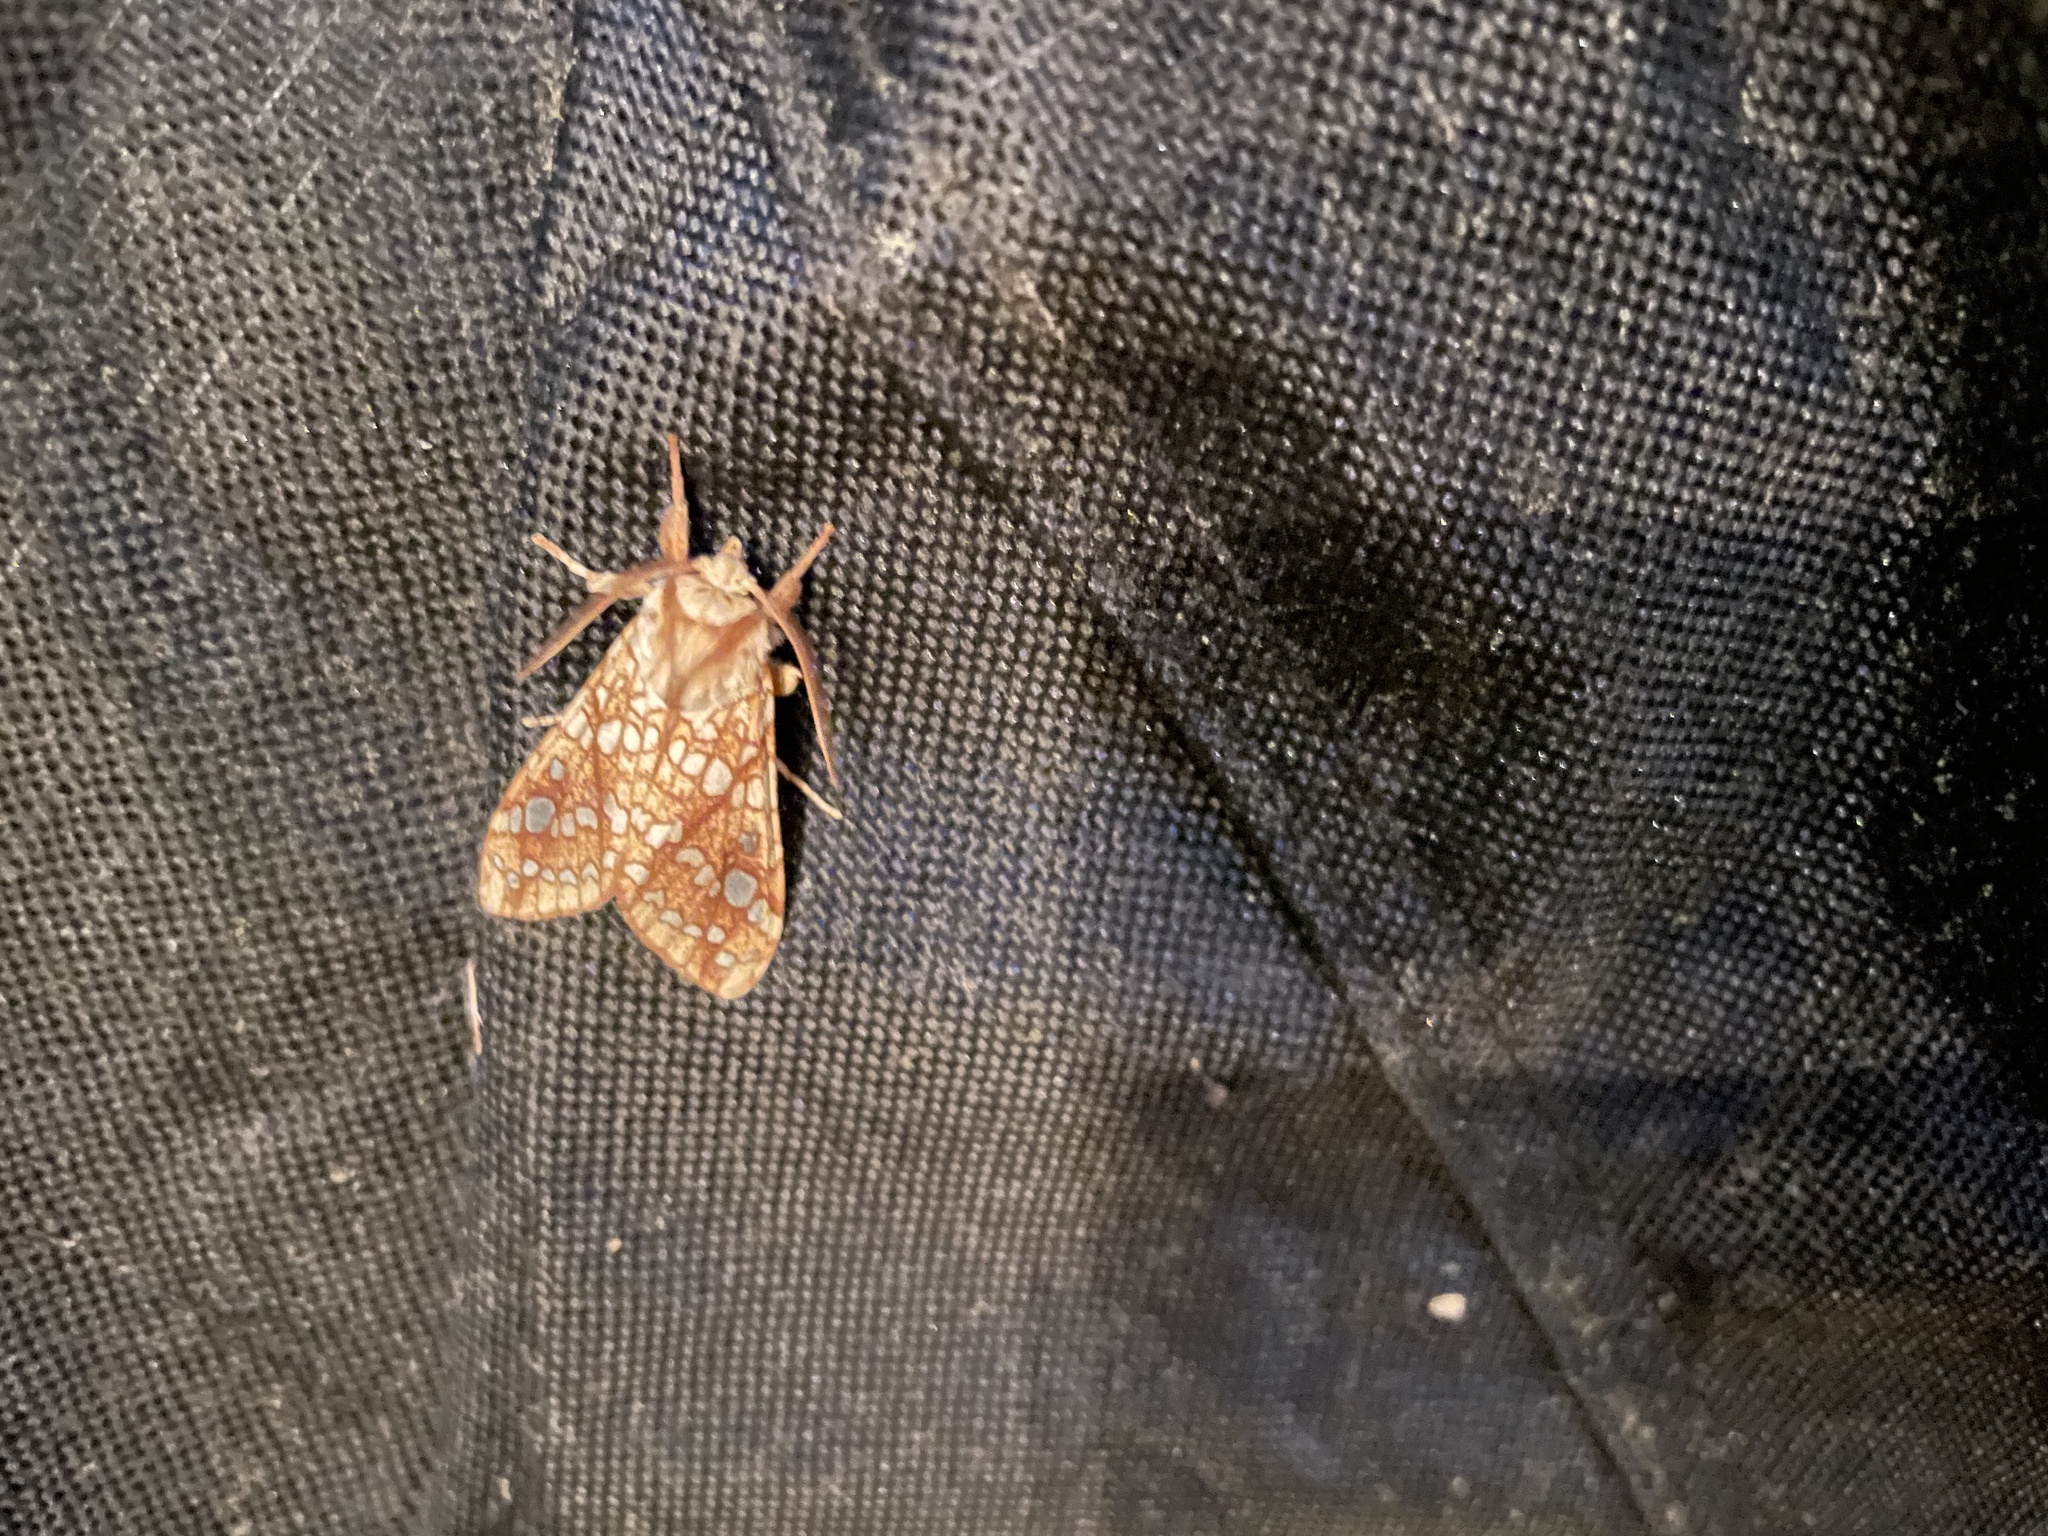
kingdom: Animalia
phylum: Arthropoda
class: Insecta
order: Lepidoptera
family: Erebidae
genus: Lophocampa
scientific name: Lophocampa caryae
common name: Hickory tussock moth
